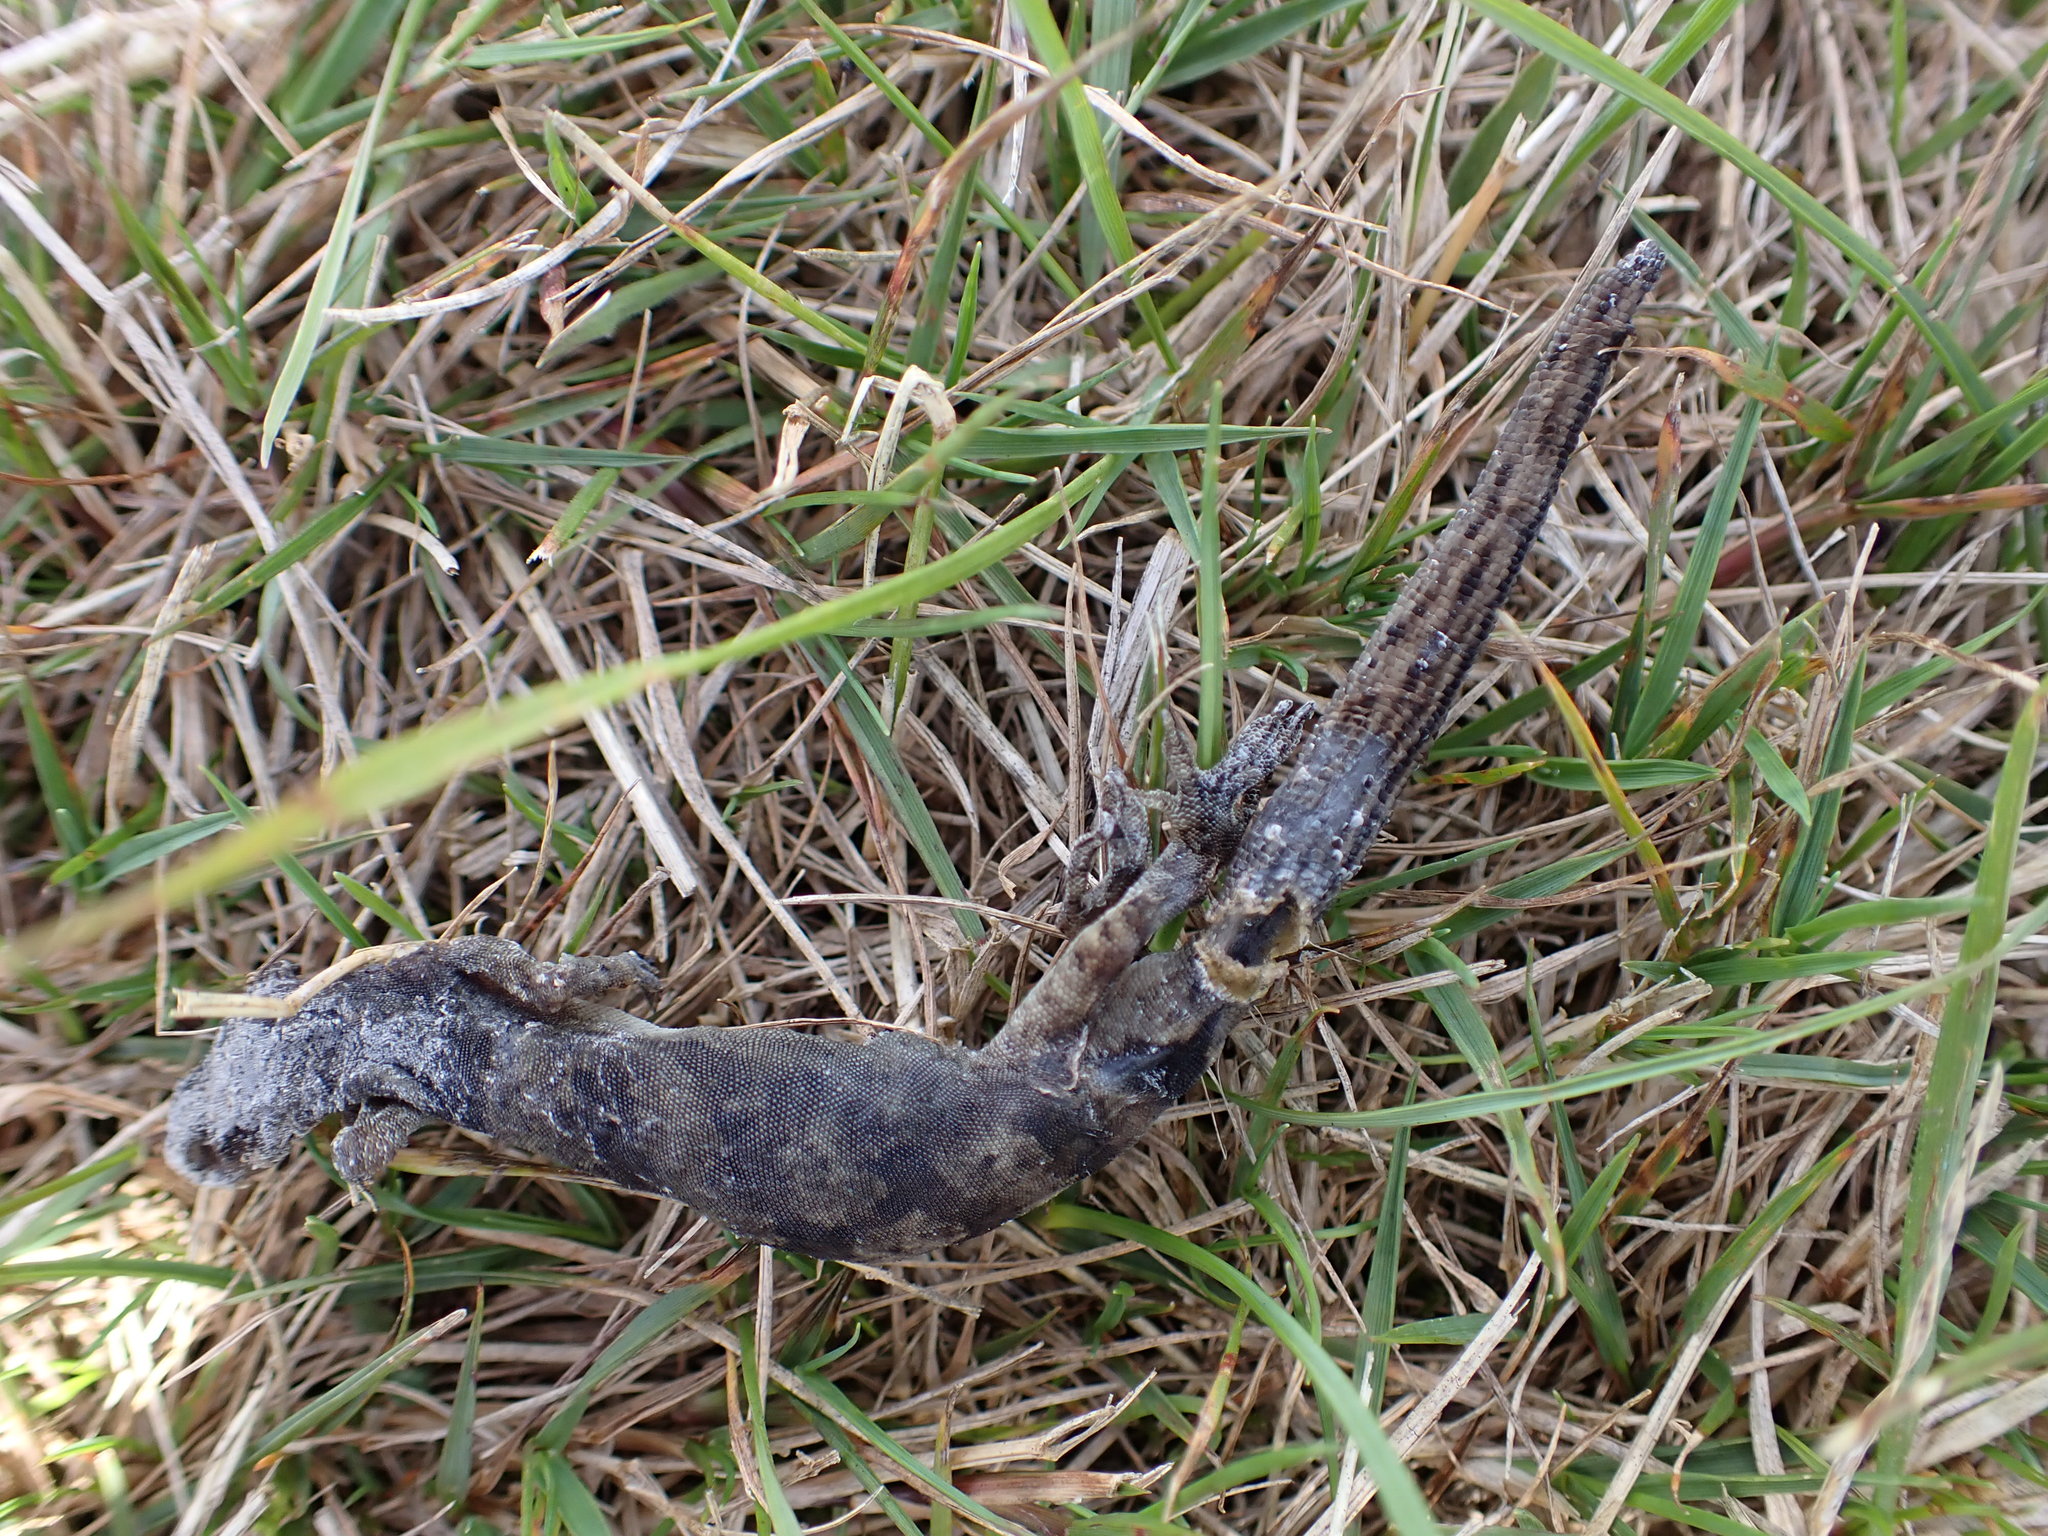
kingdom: Animalia
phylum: Chordata
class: Squamata
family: Diplodactylidae
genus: Woodworthia
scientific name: Woodworthia brunnea
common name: Canterbury gecko
